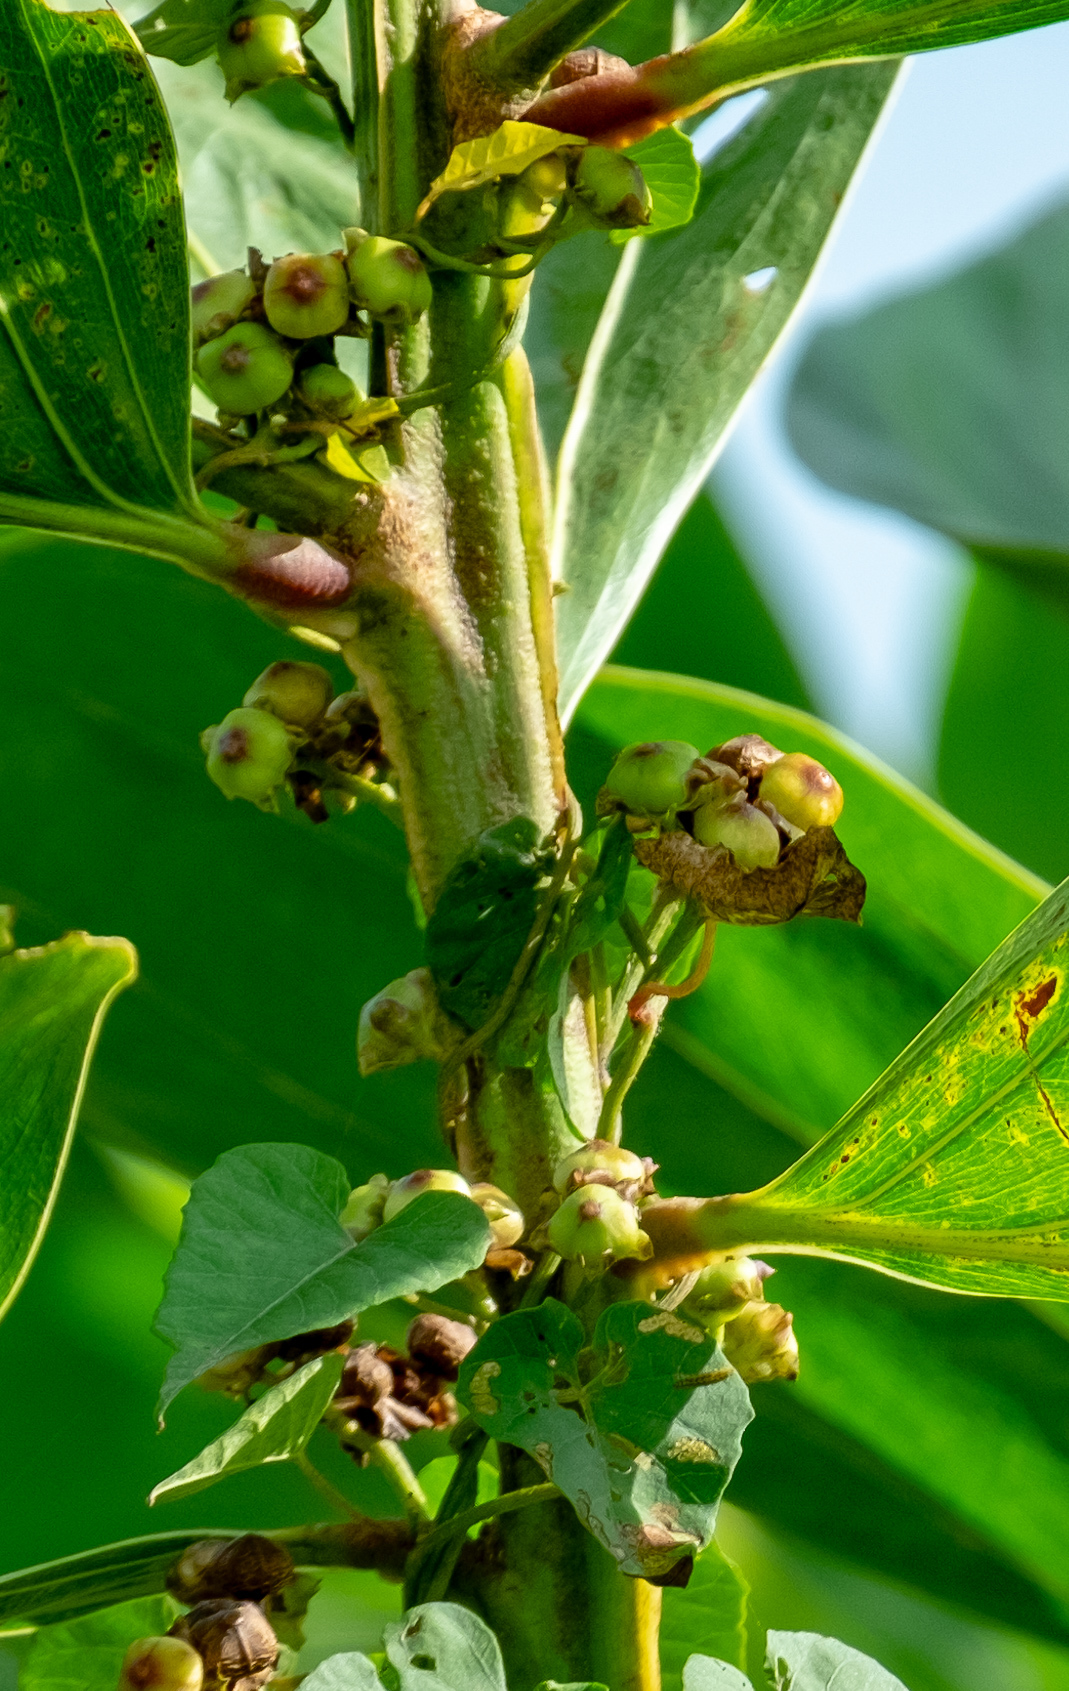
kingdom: Plantae
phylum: Tracheophyta
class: Magnoliopsida
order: Solanales
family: Convolvulaceae
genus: Merremia
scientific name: Merremia hederacea
